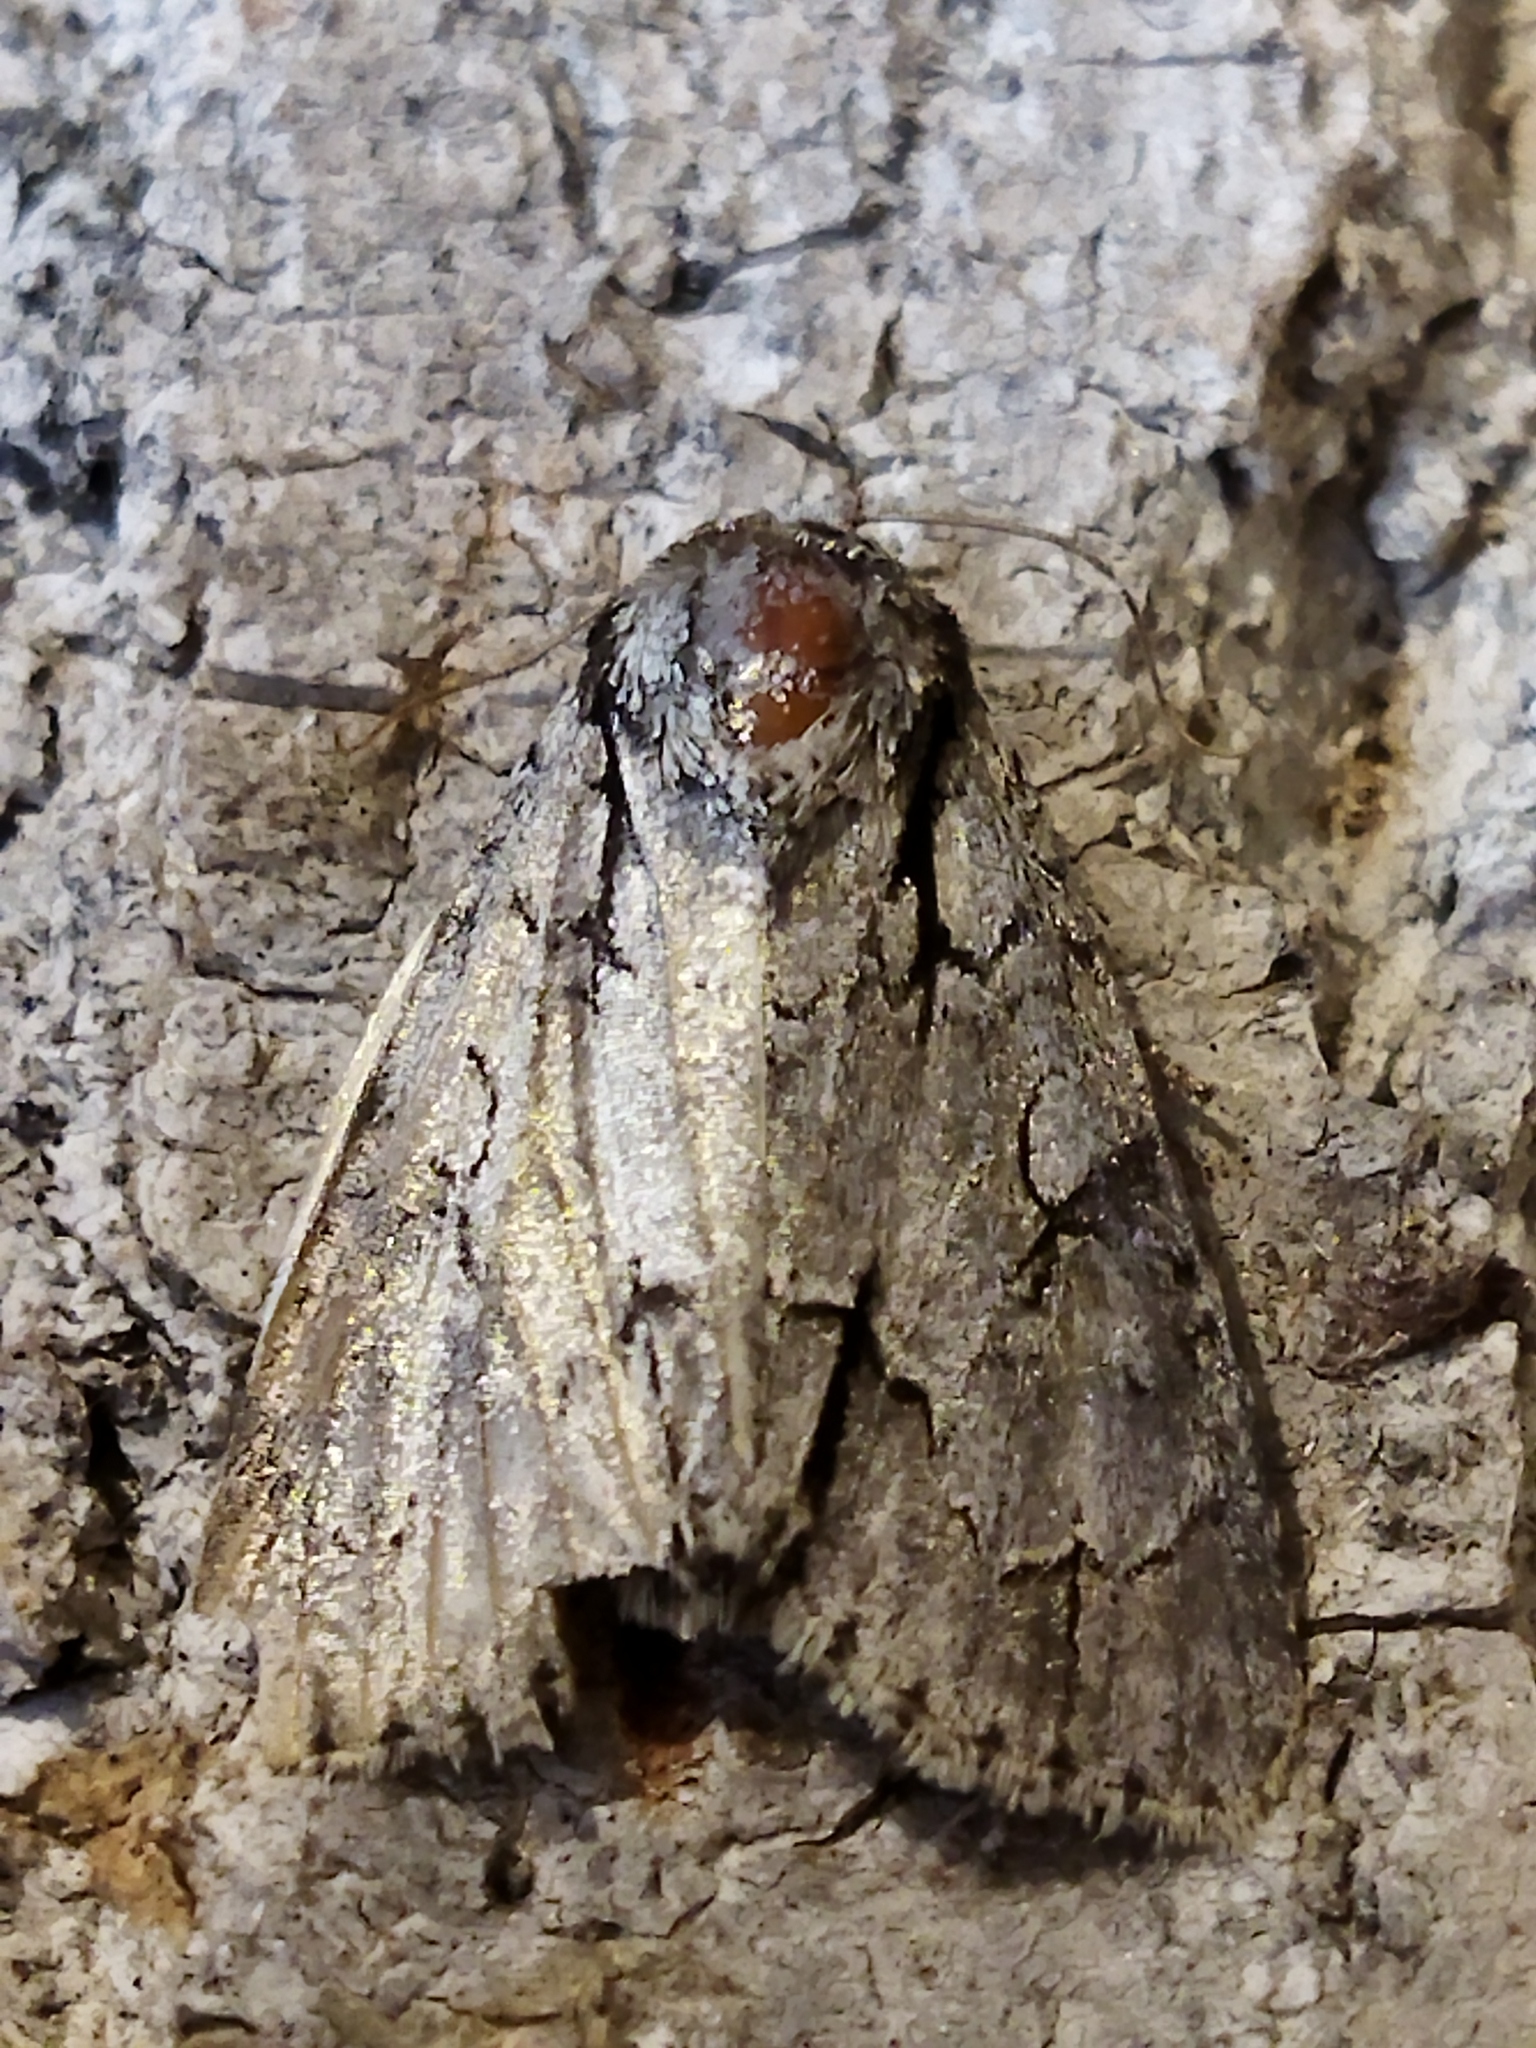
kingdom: Animalia
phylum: Arthropoda
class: Insecta
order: Lepidoptera
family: Noctuidae
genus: Acronicta
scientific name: Acronicta
